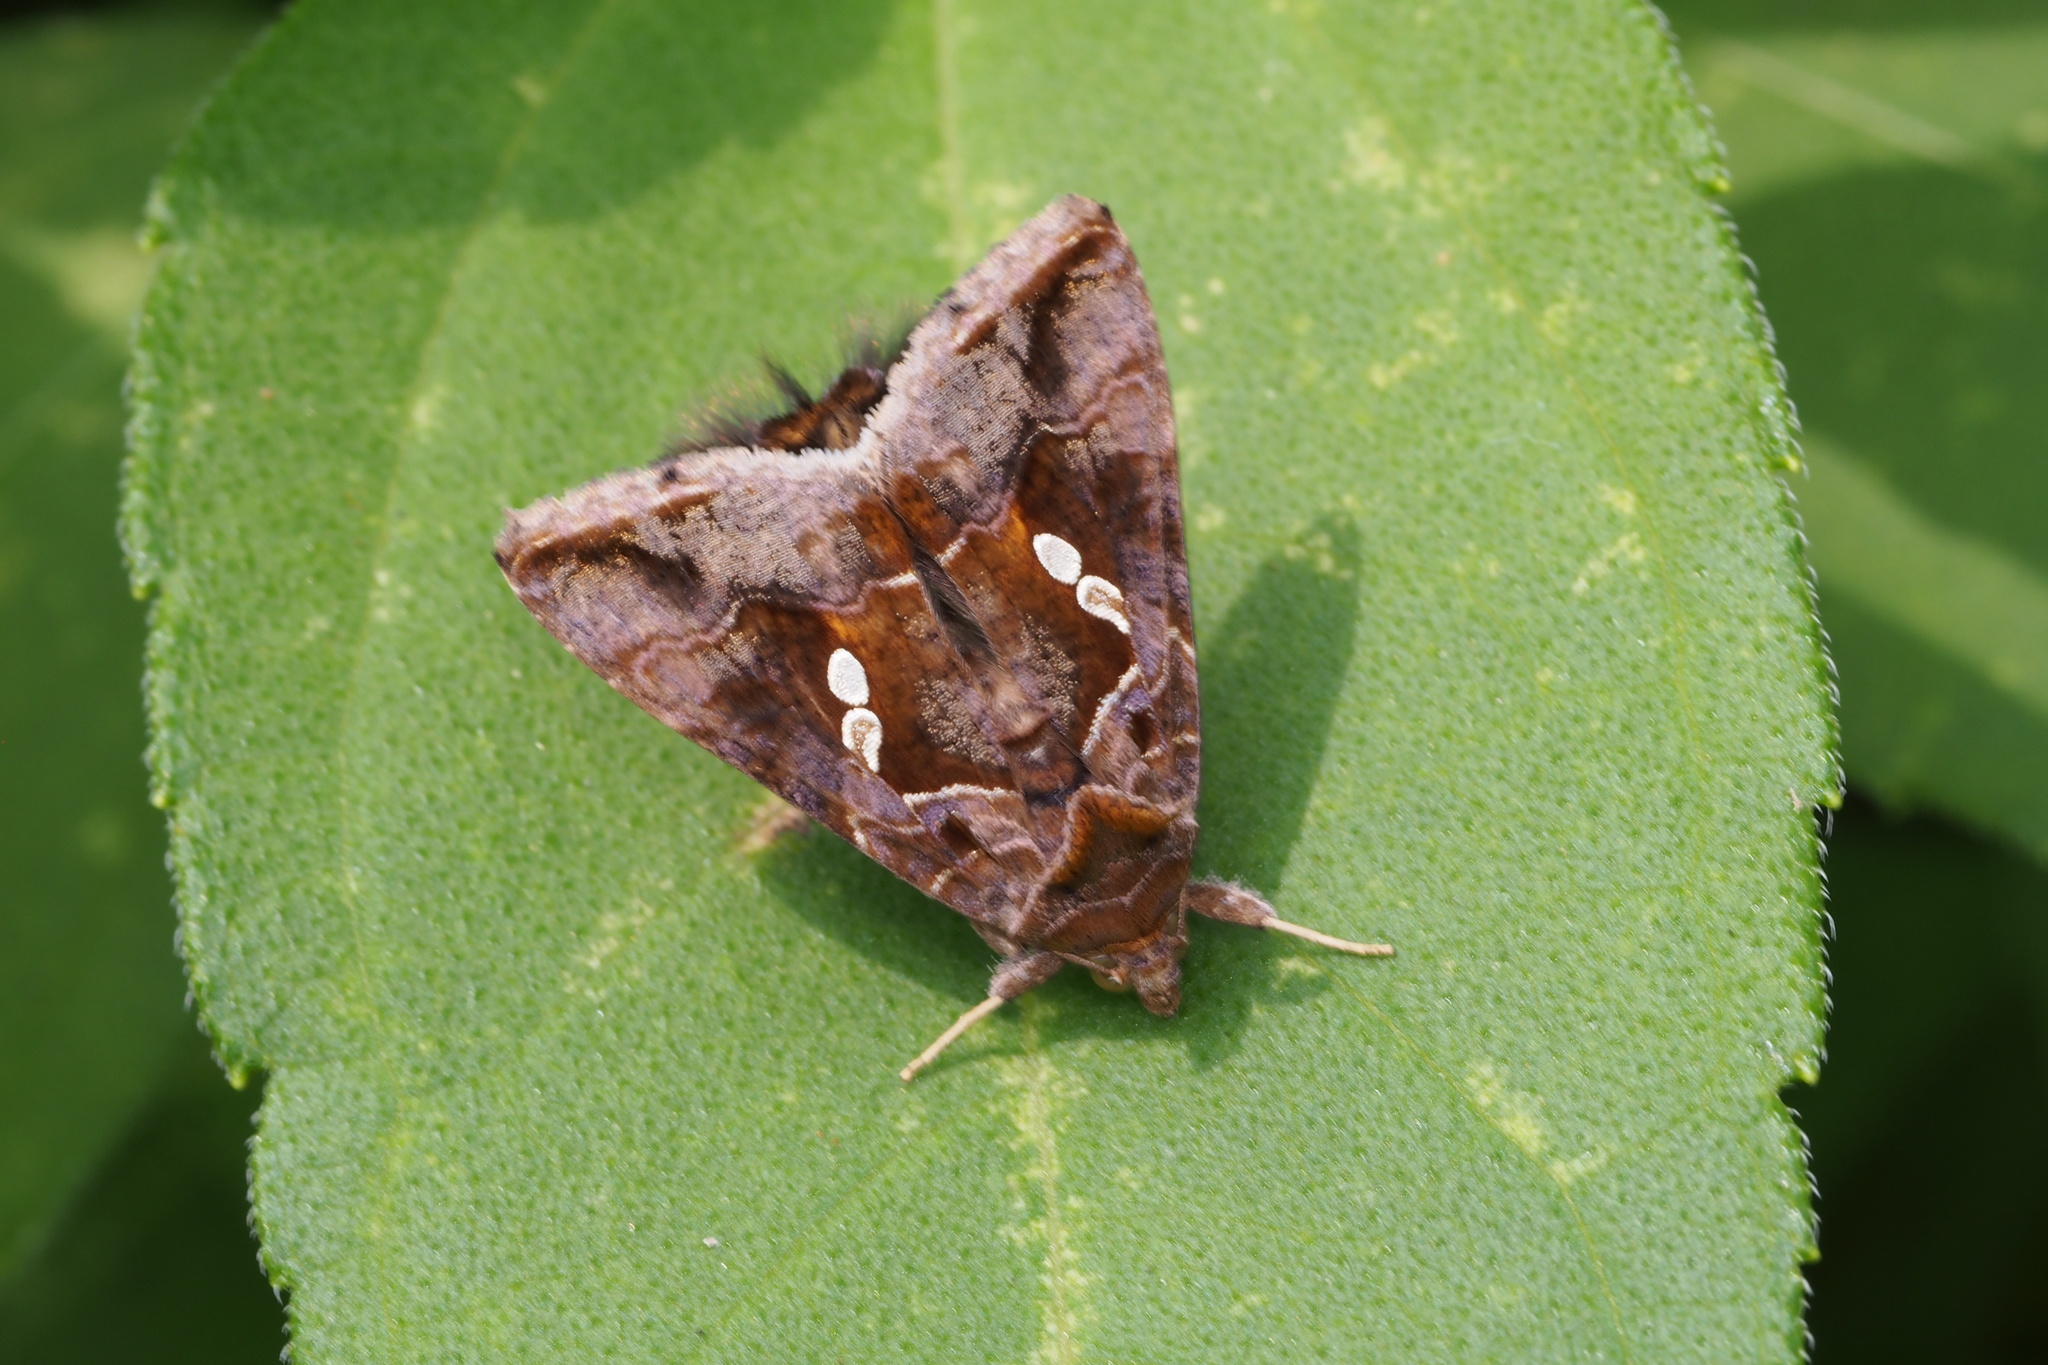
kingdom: Animalia
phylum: Arthropoda
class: Insecta
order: Lepidoptera
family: Noctuidae
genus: Chrysodeixis
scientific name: Chrysodeixis eriosoma
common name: Green garden looper
